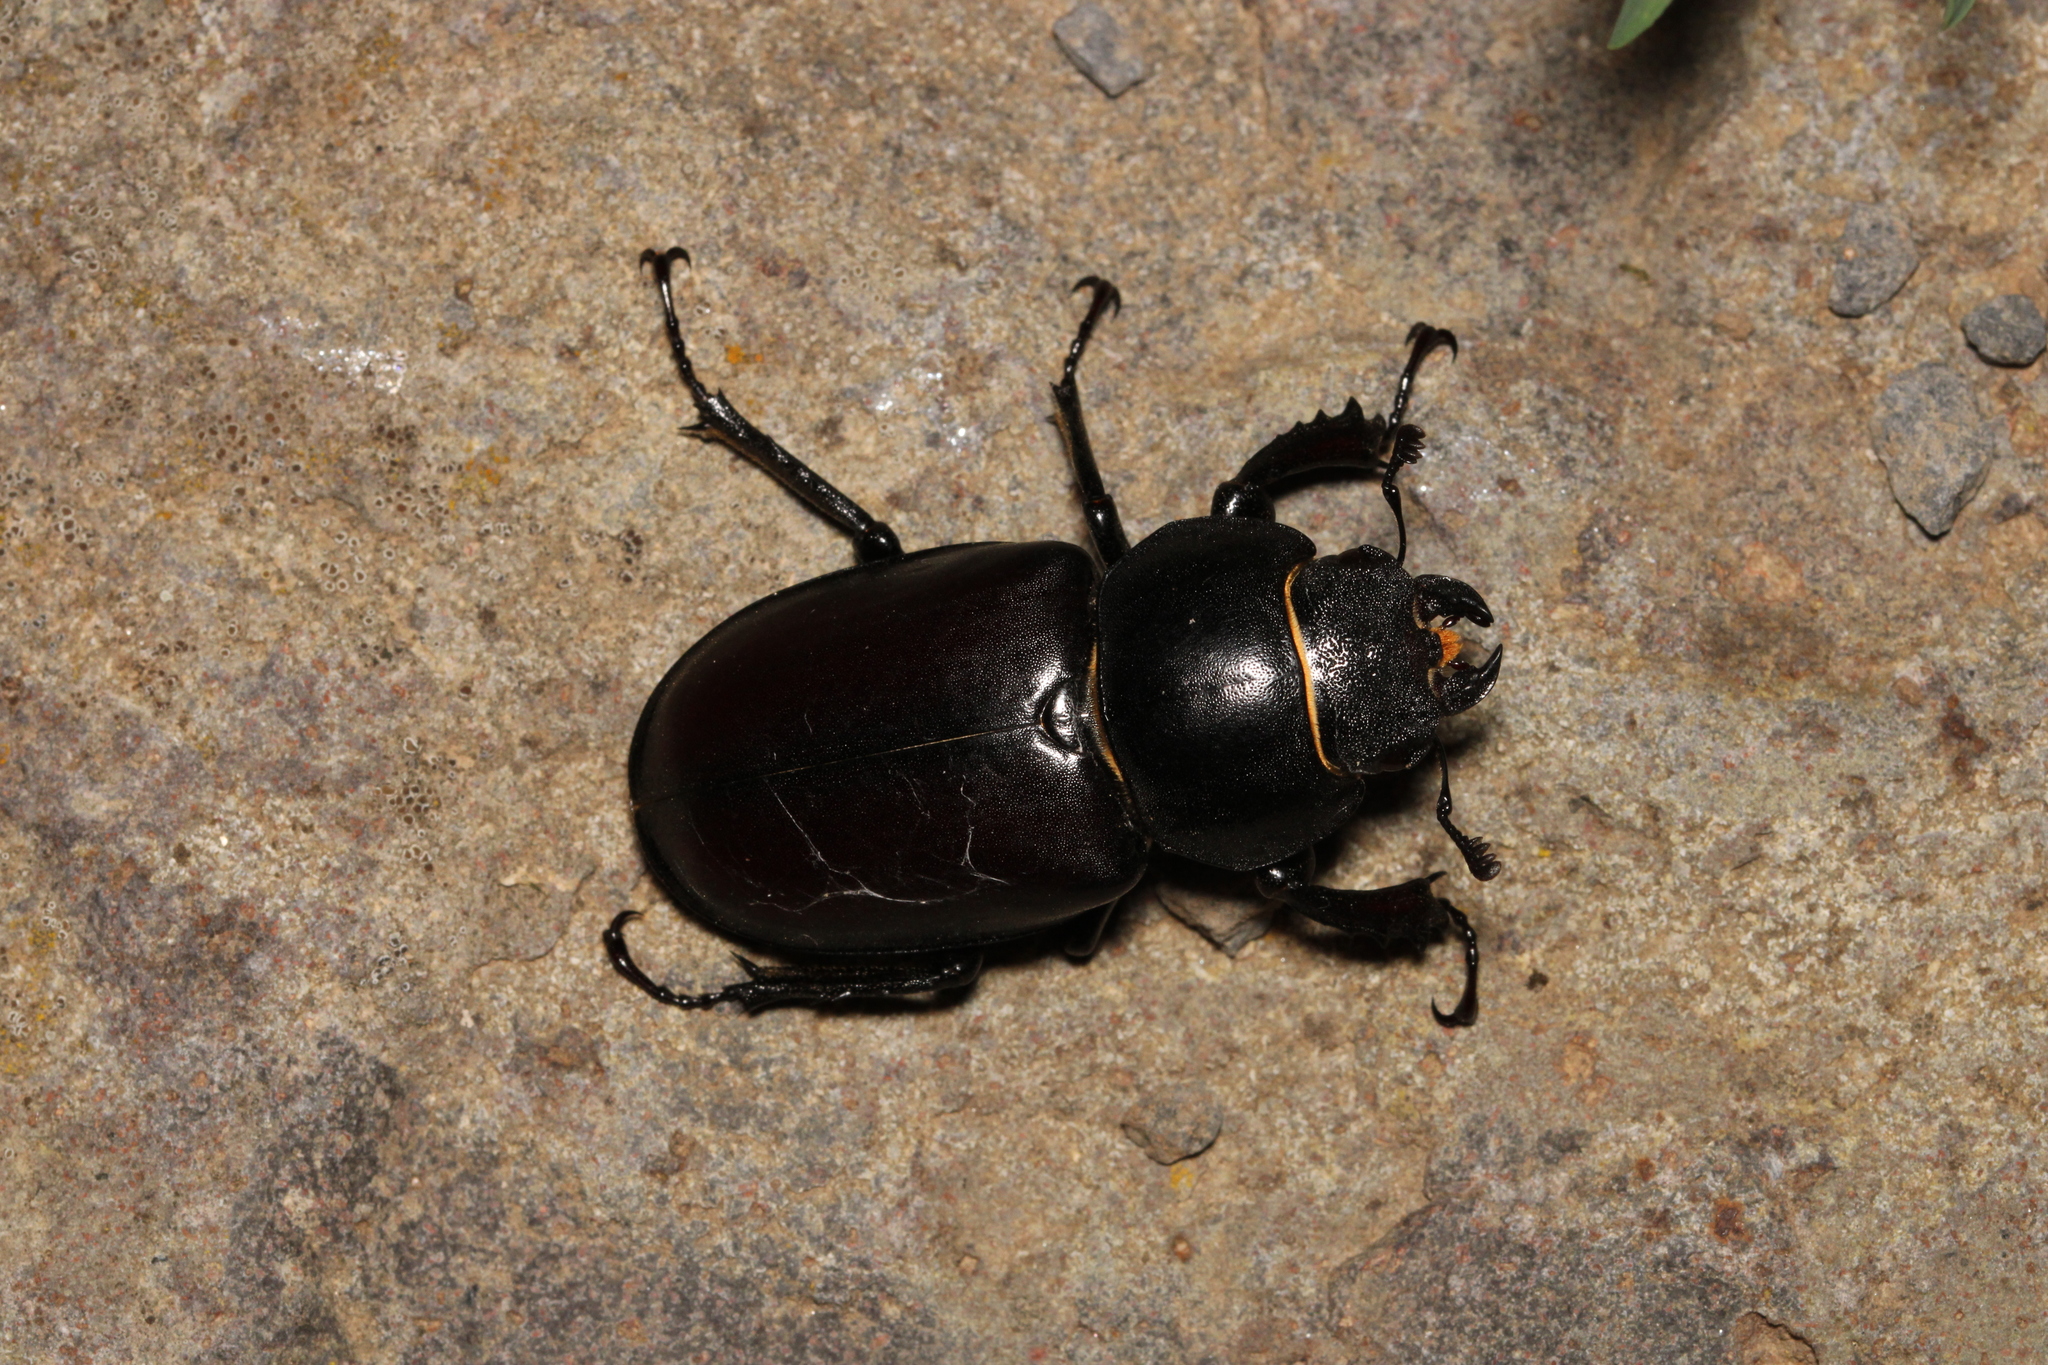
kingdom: Animalia
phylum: Arthropoda
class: Insecta
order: Coleoptera
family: Lucanidae
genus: Lucanus
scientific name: Lucanus cervus
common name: Stag beetle
